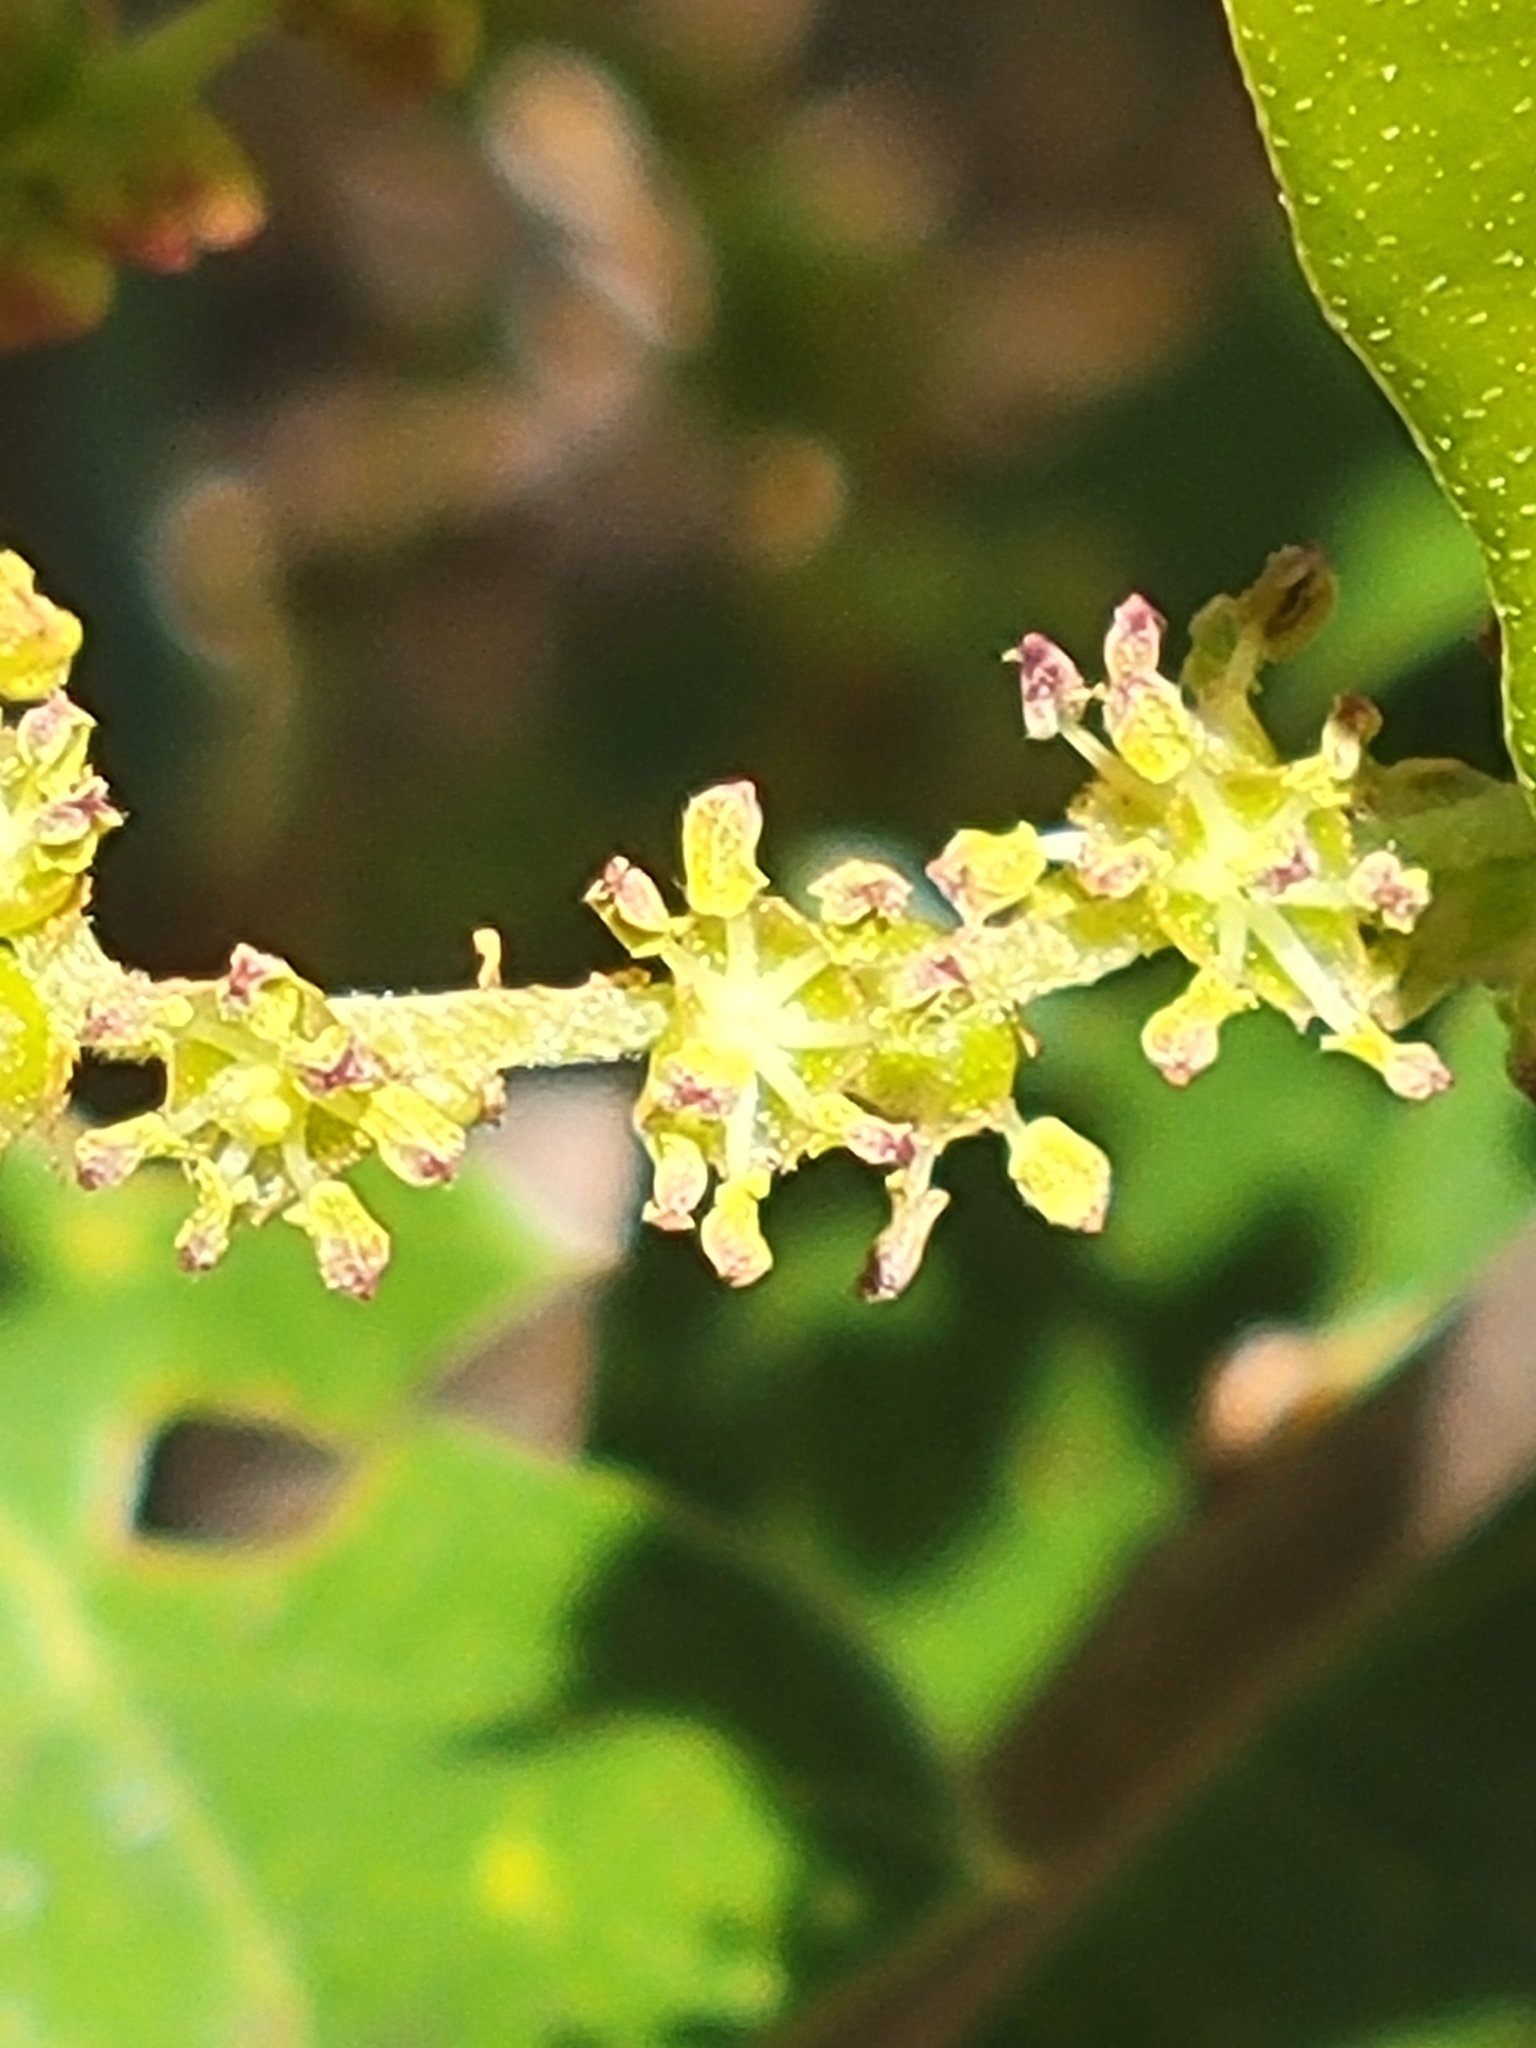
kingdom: Plantae
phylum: Tracheophyta
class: Magnoliopsida
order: Fagales
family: Fagaceae
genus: Quercus
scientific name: Quercus minima
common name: Dwarf live oak
